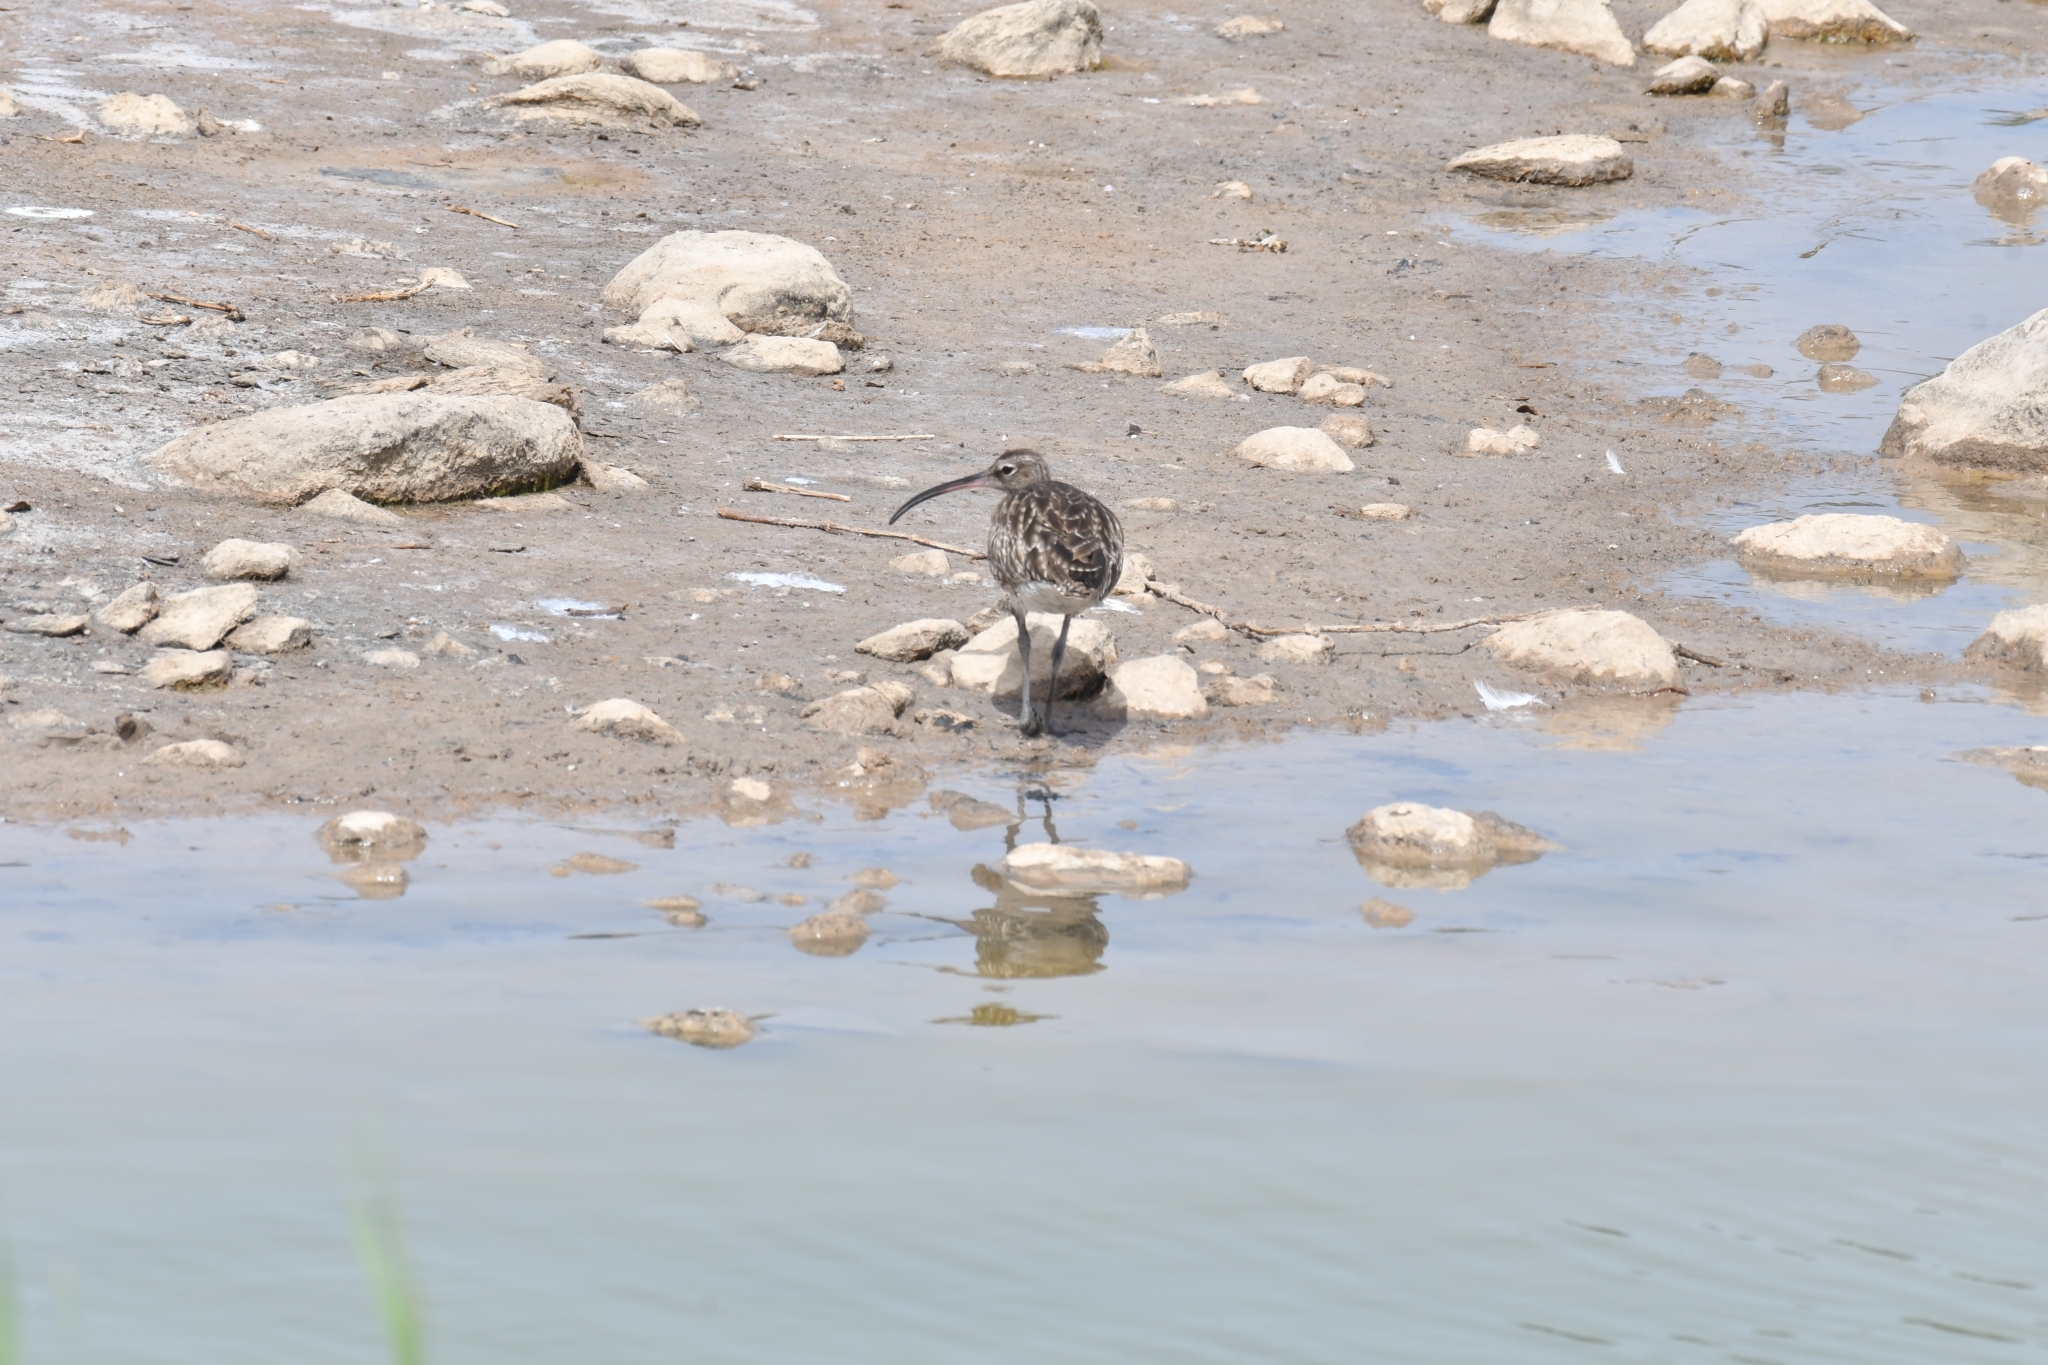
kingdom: Animalia
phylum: Chordata
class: Aves
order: Charadriiformes
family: Scolopacidae
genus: Numenius
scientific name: Numenius phaeopus
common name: Whimbrel
